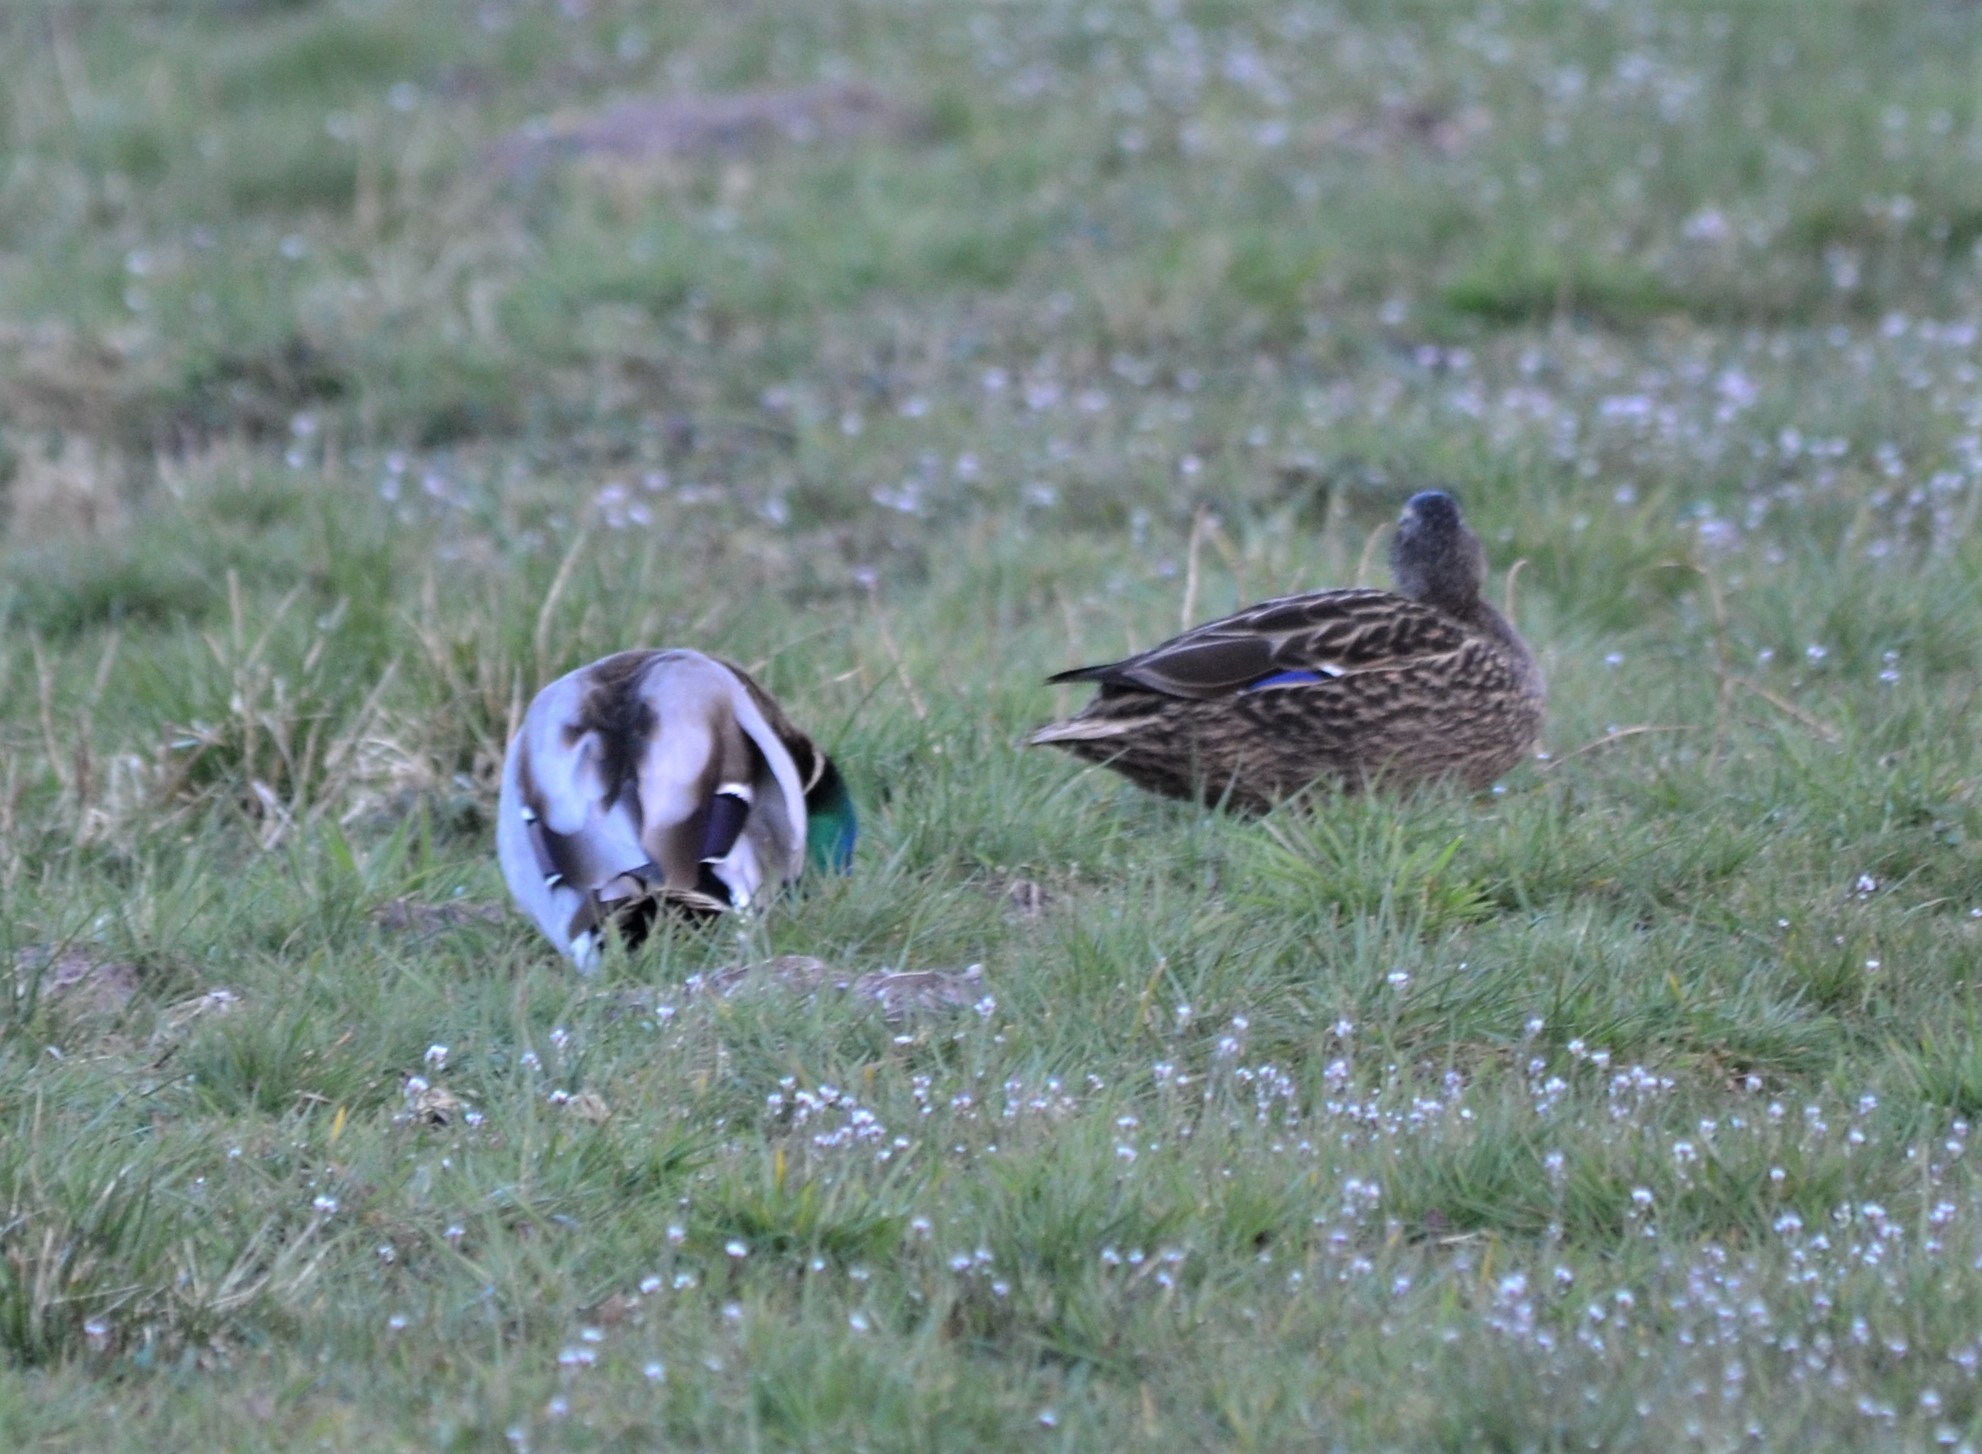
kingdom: Animalia
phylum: Chordata
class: Aves
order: Anseriformes
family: Anatidae
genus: Anas
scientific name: Anas platyrhynchos
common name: Mallard
